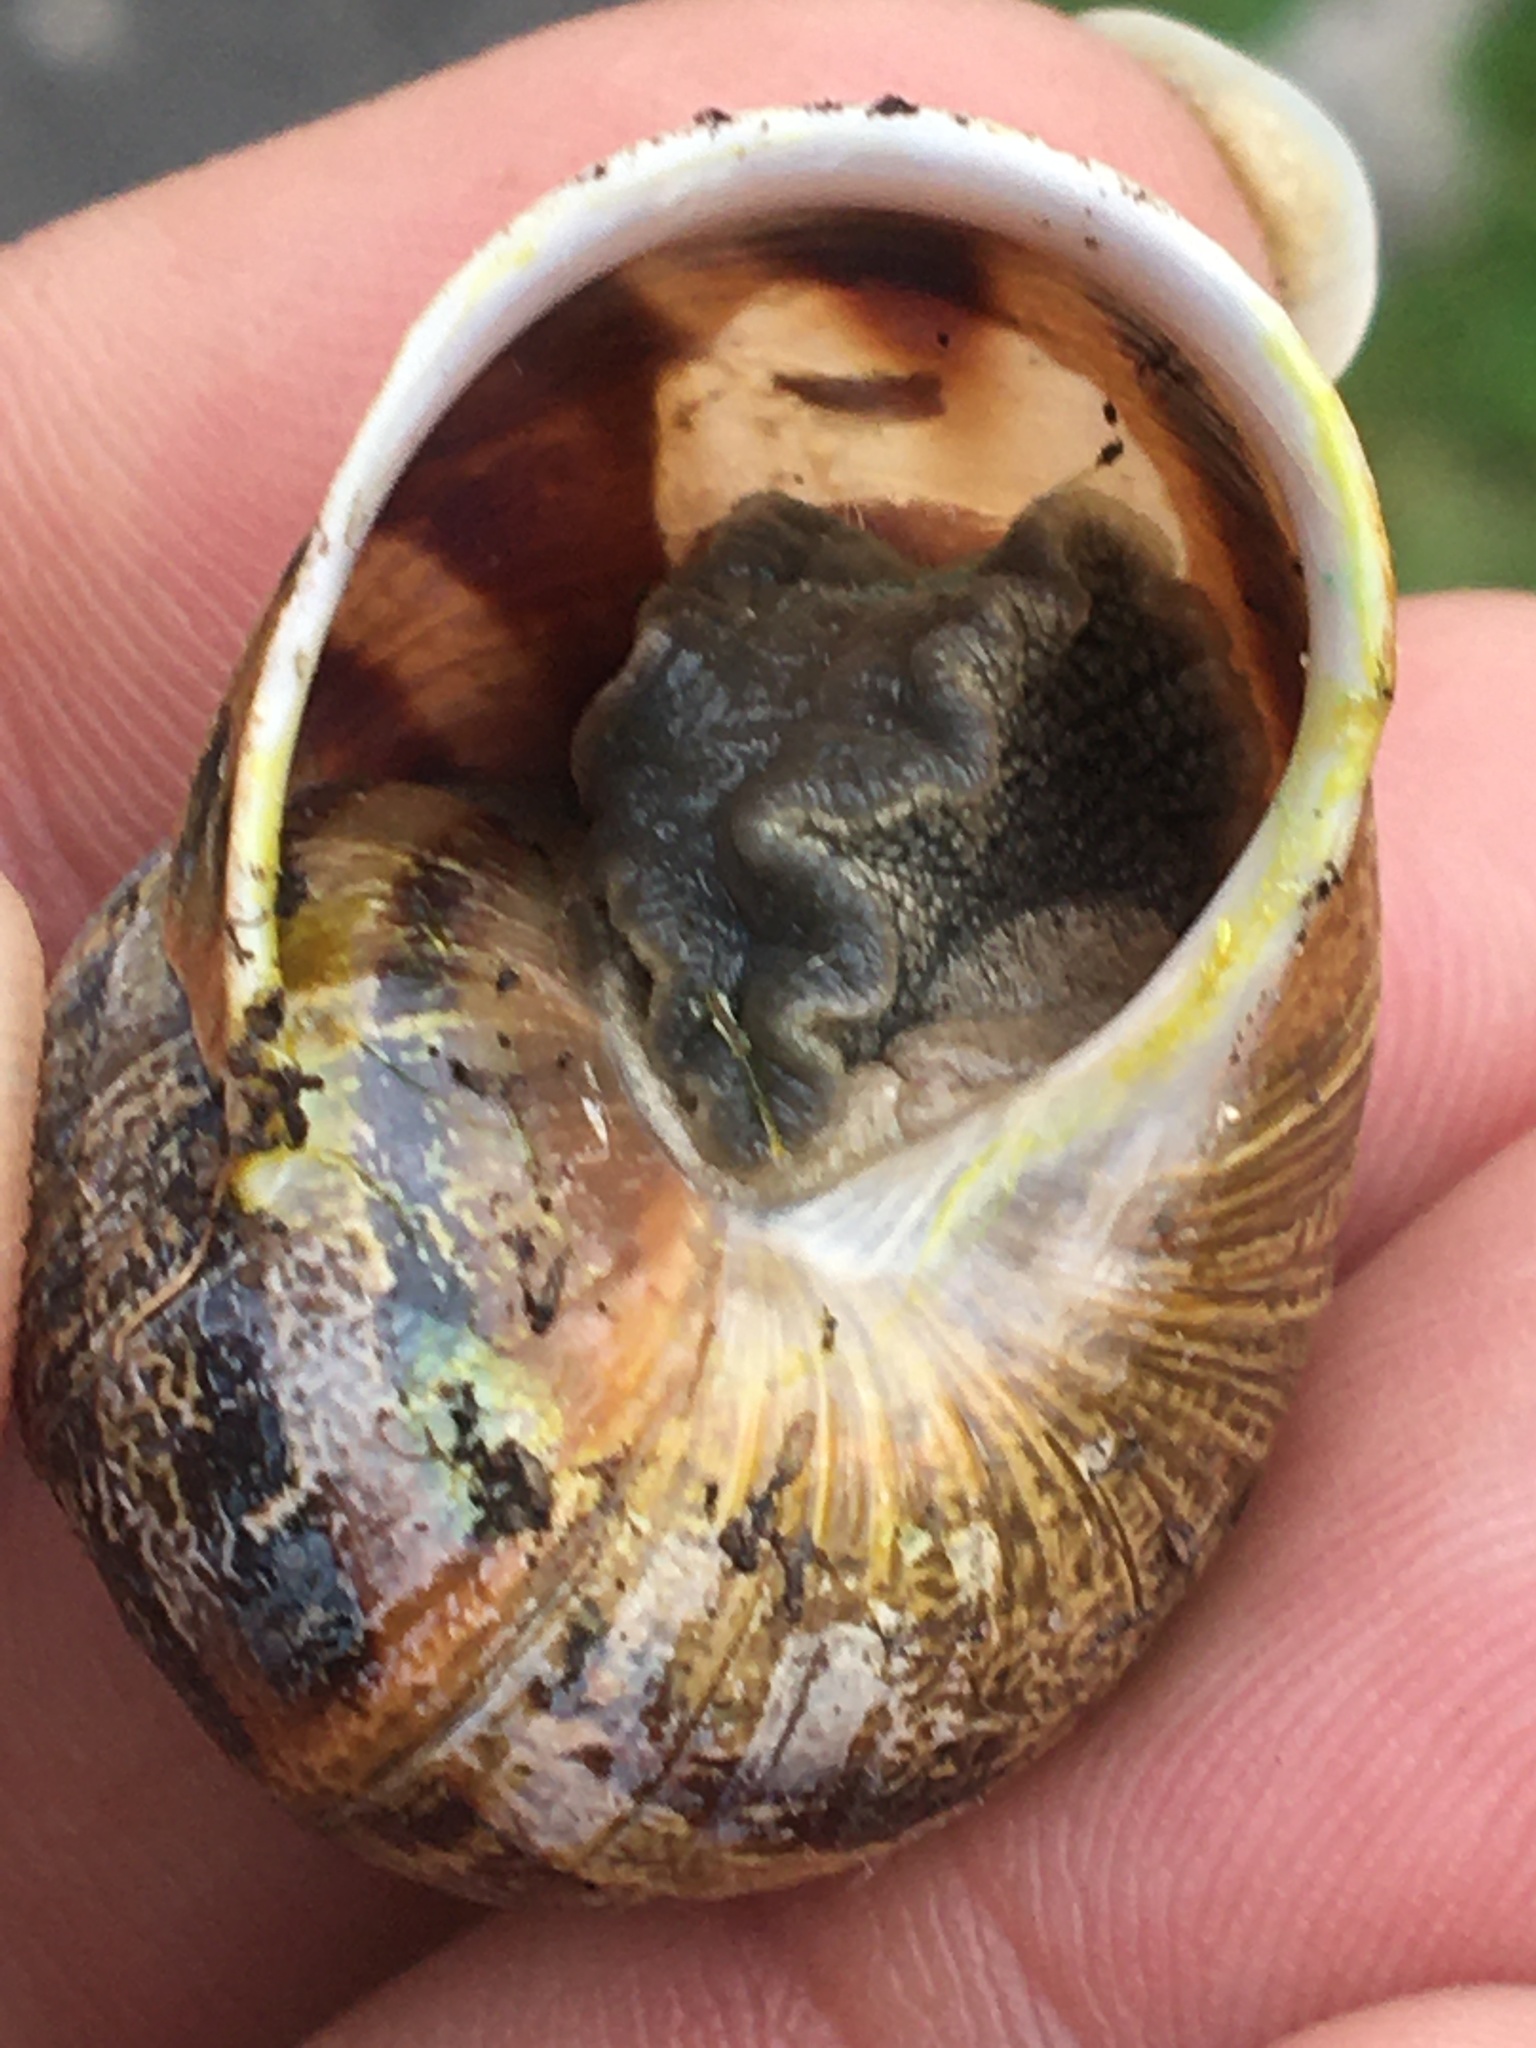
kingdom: Animalia
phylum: Mollusca
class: Gastropoda
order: Stylommatophora
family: Helicidae
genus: Cornu
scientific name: Cornu aspersum
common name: Brown garden snail
